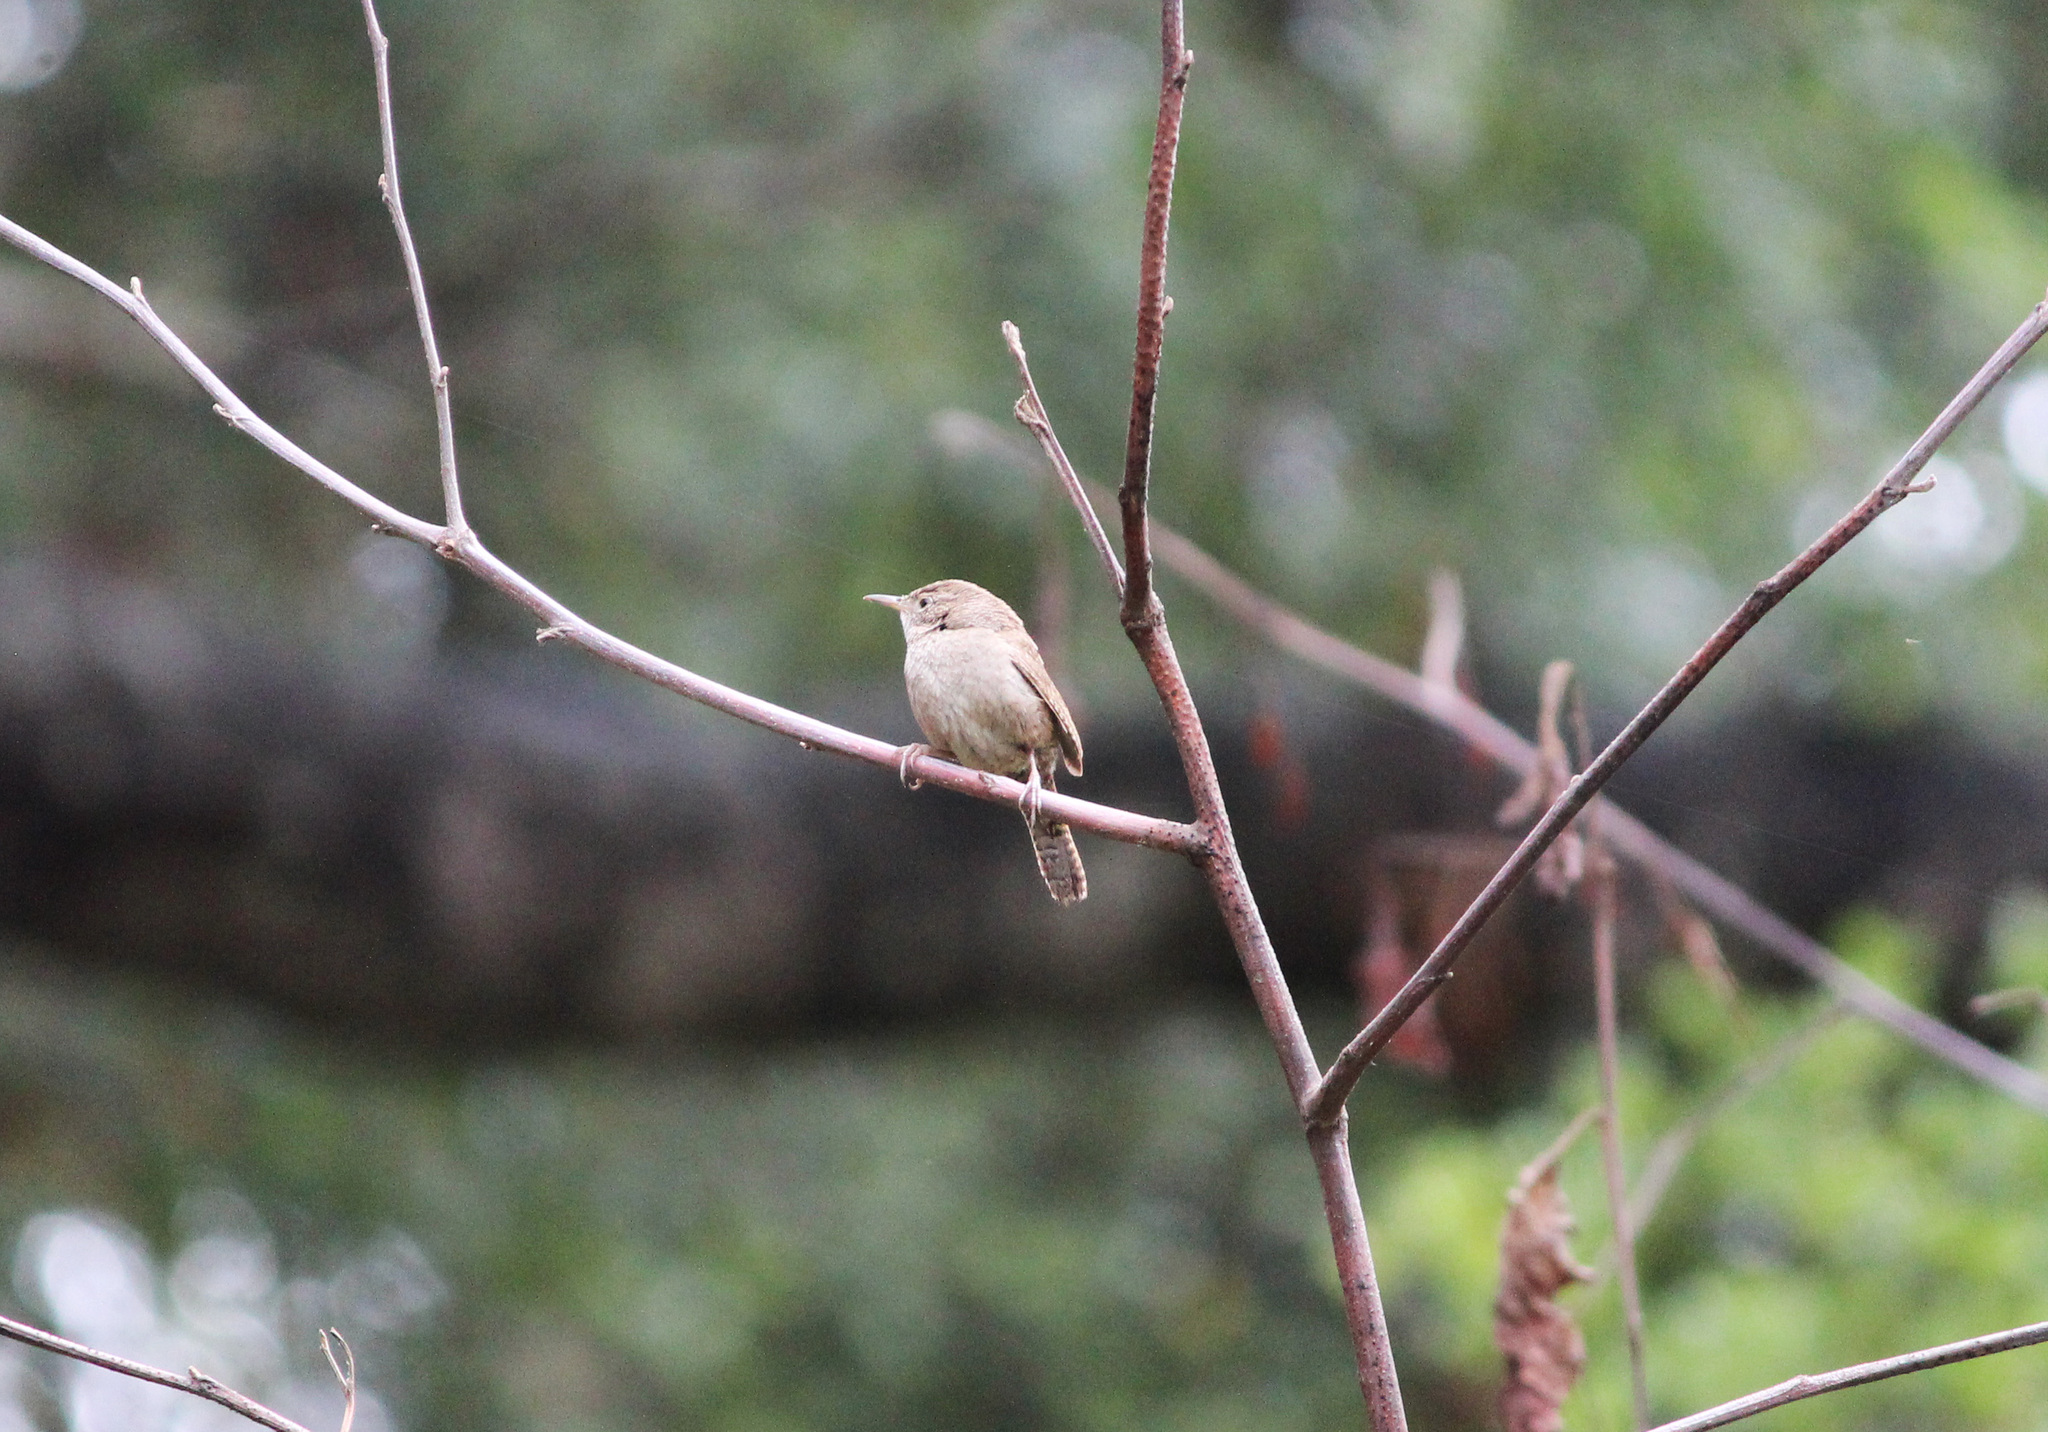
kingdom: Animalia
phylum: Chordata
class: Aves
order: Passeriformes
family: Troglodytidae
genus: Troglodytes
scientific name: Troglodytes aedon
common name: House wren
